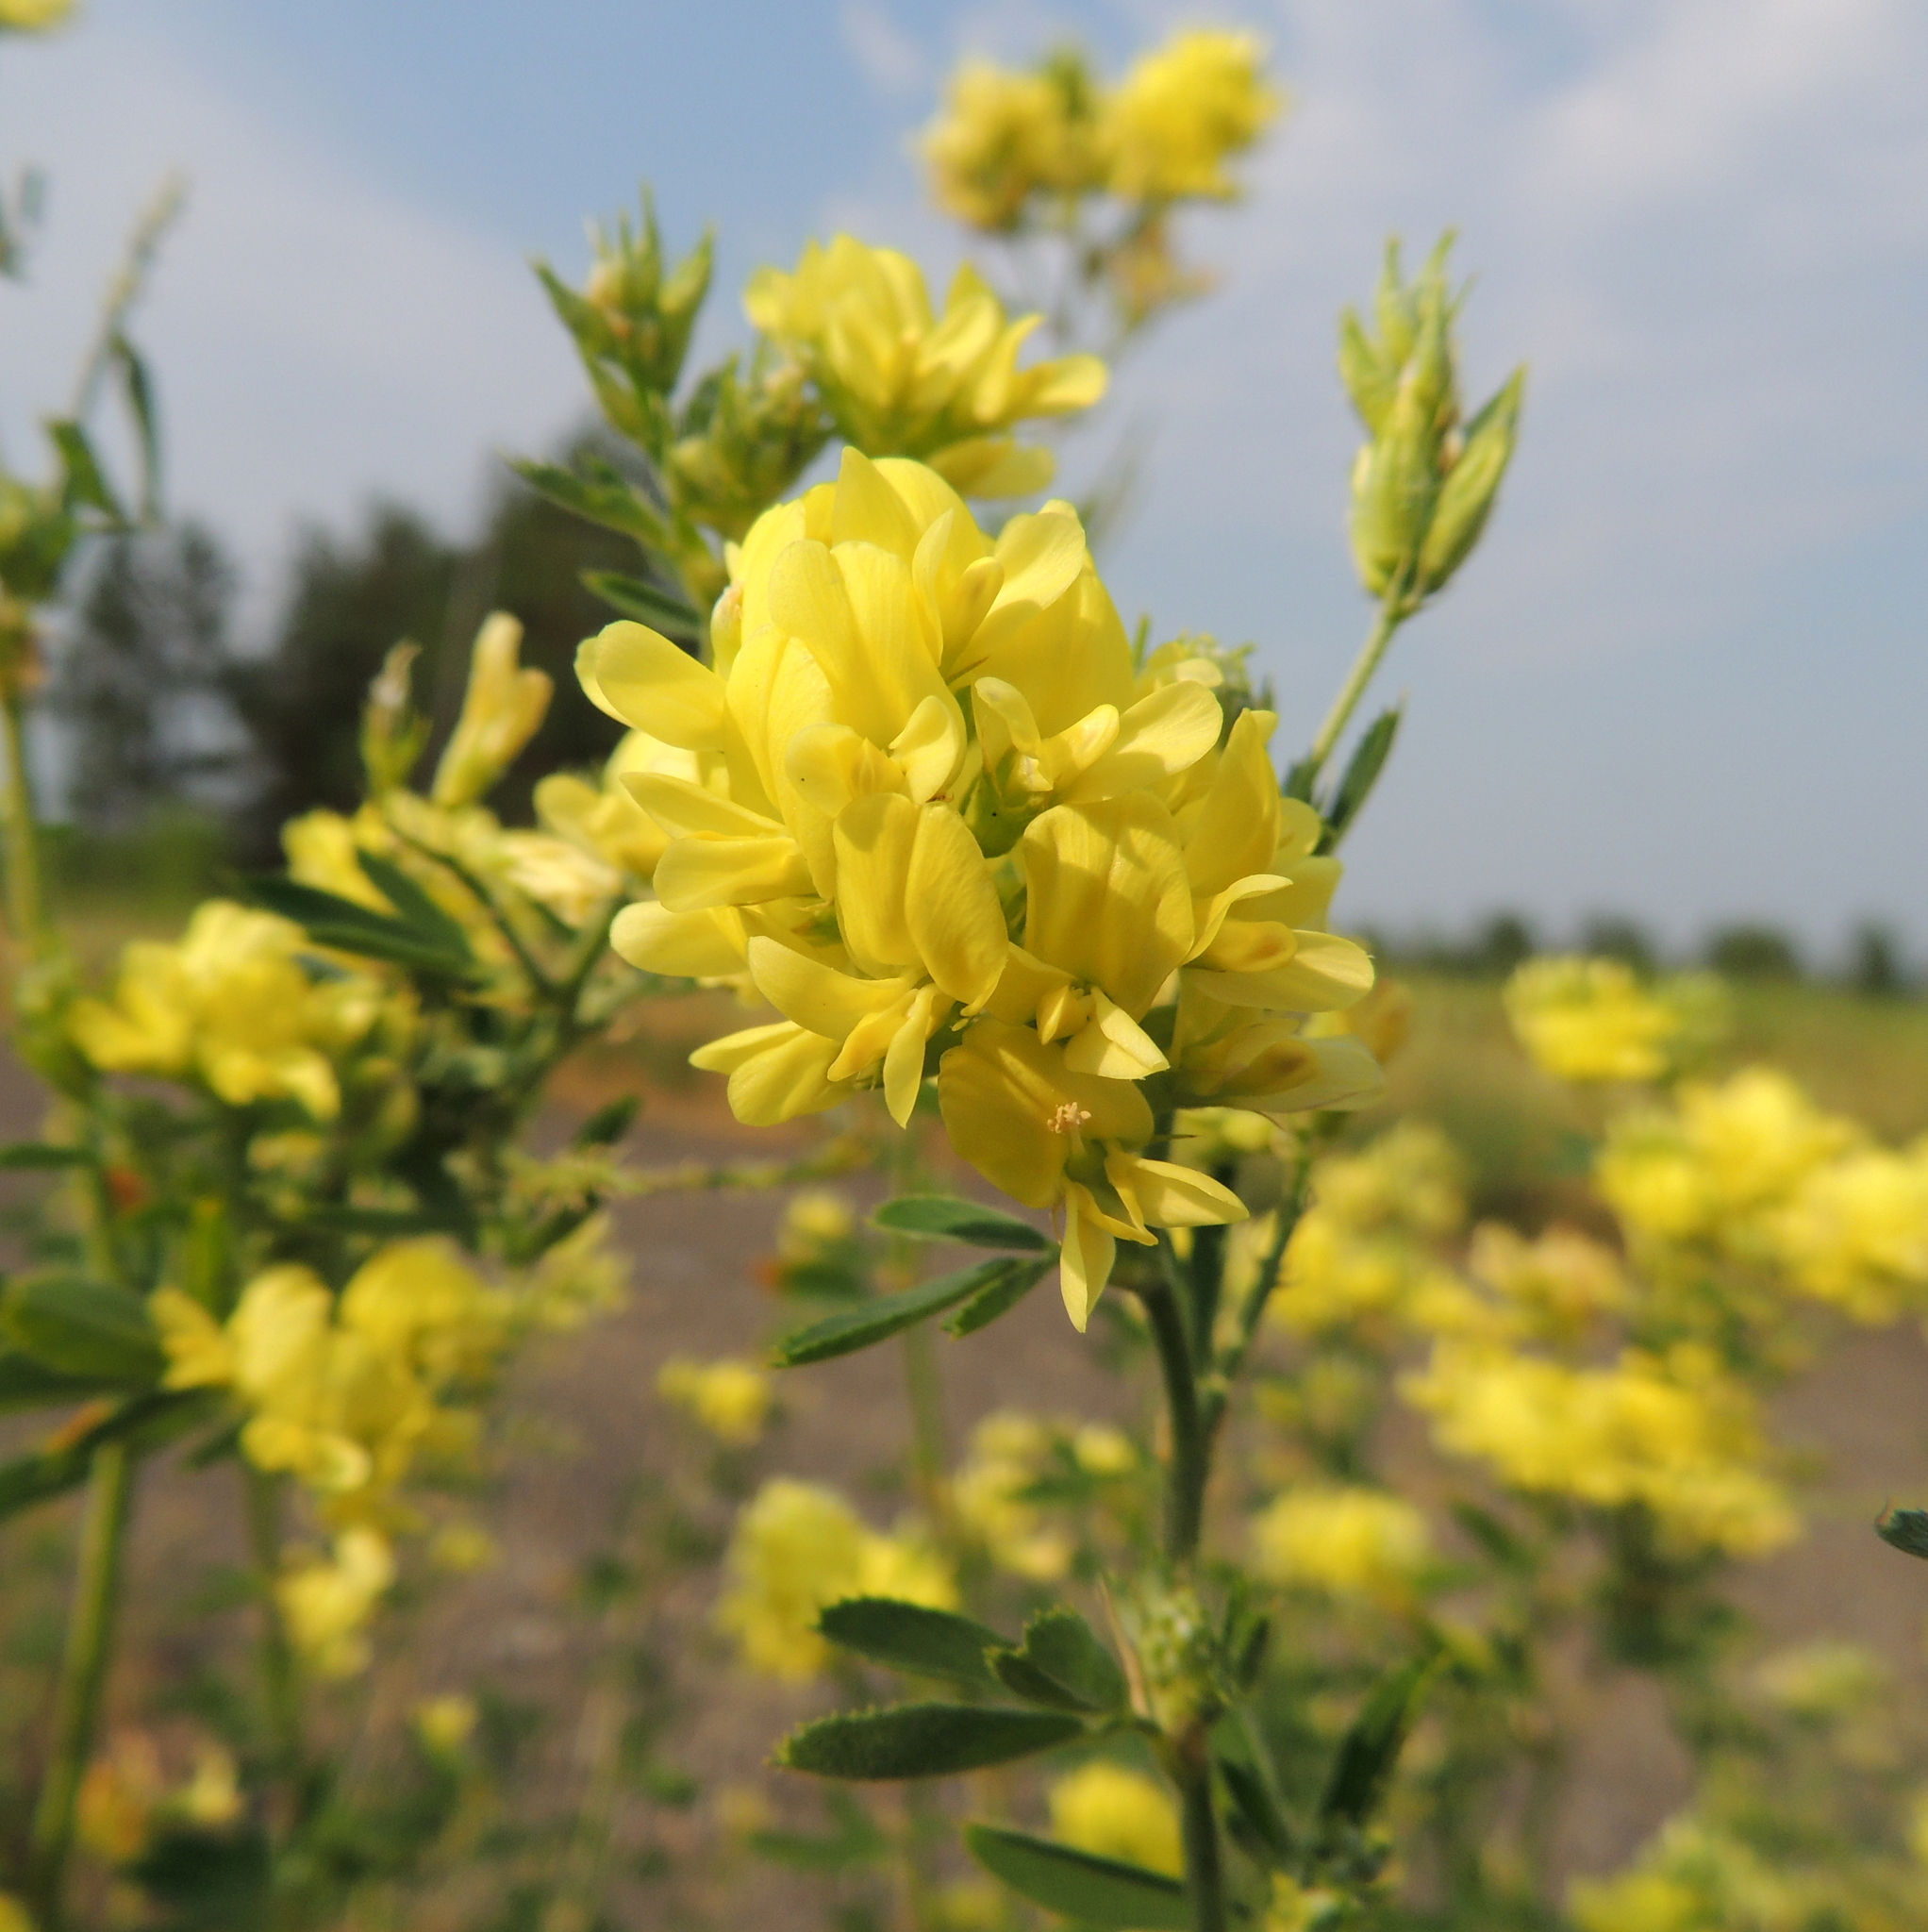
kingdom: Plantae
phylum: Tracheophyta
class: Magnoliopsida
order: Fabales
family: Fabaceae
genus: Medicago
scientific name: Medicago varia
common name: Sand lucerne
